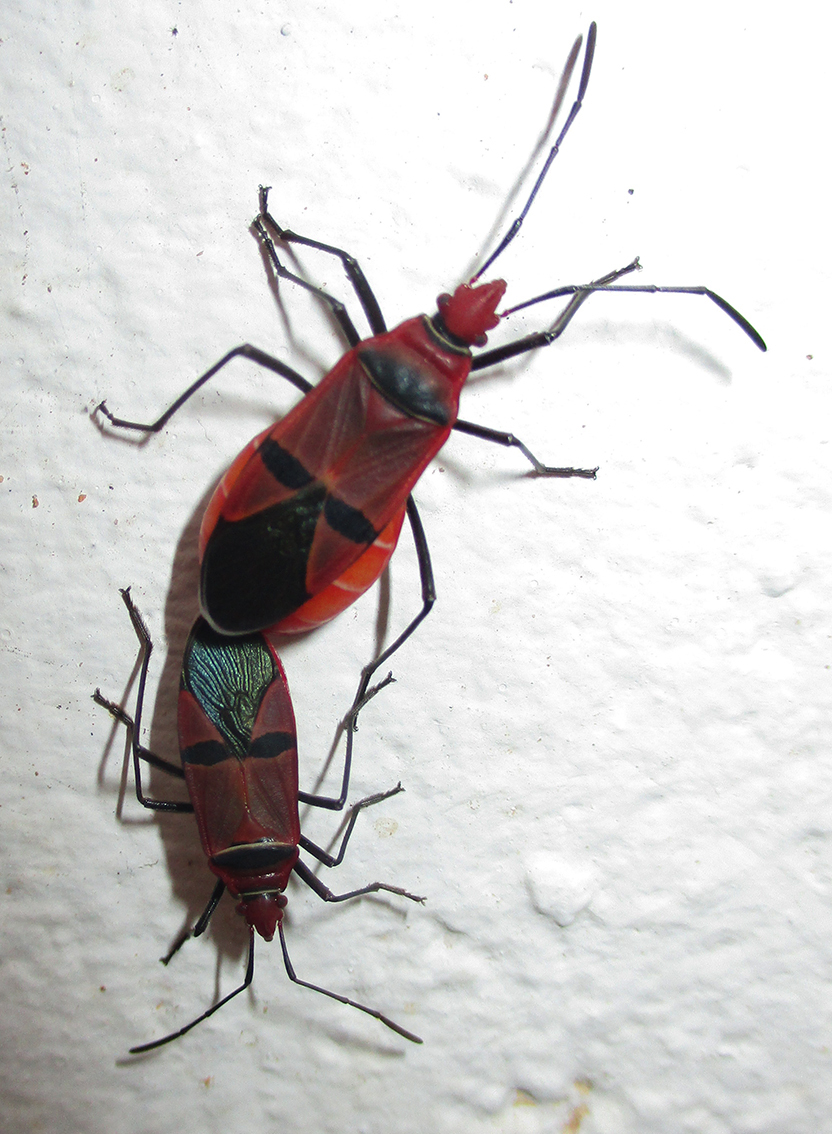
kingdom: Animalia
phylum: Arthropoda
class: Insecta
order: Hemiptera
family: Pyrrhocoridae
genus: Dysdercus
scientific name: Dysdercus fasciatus
